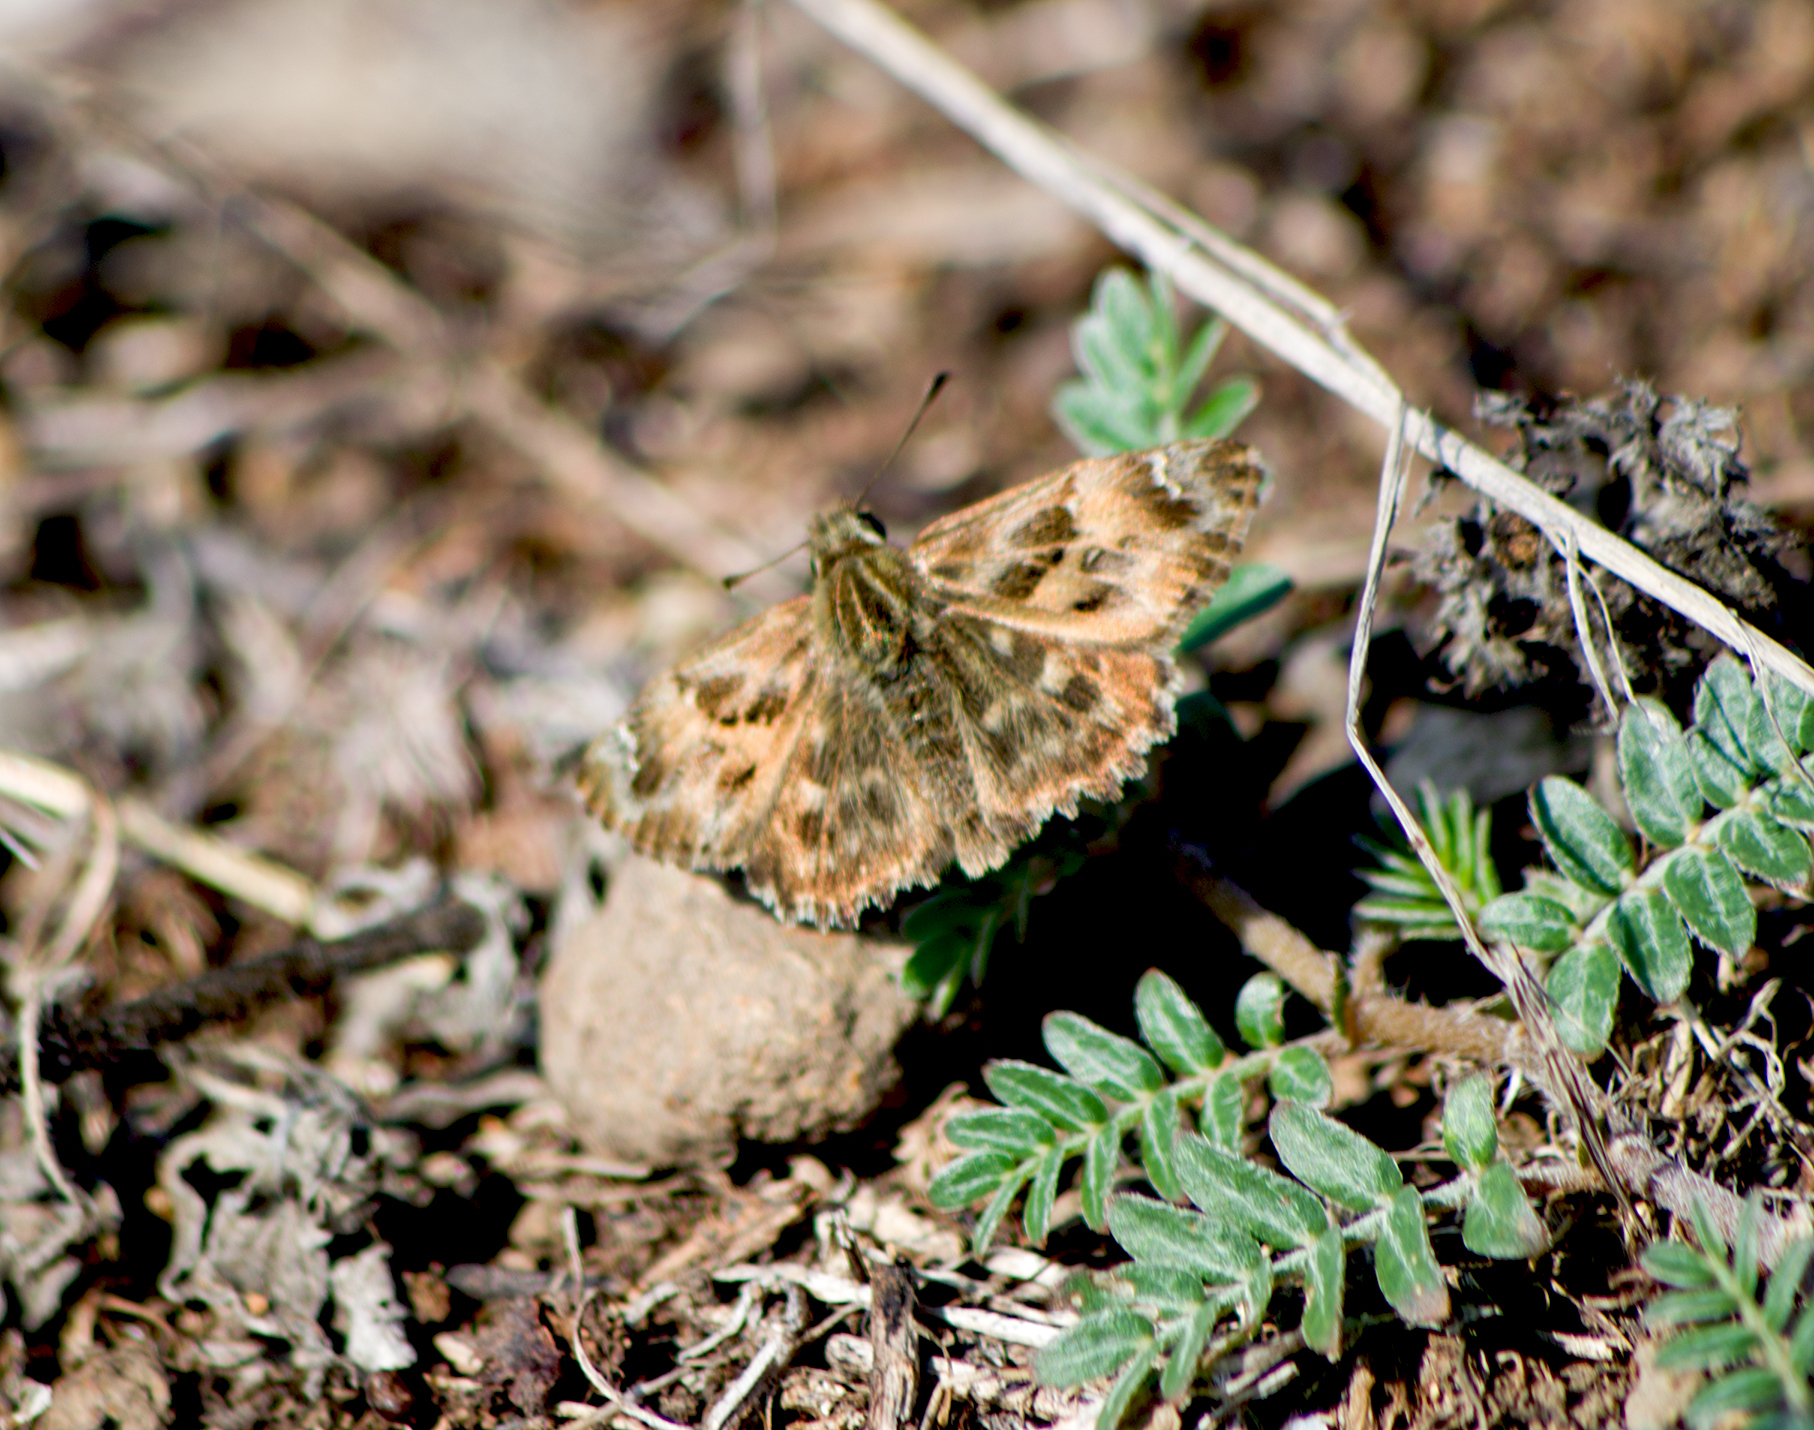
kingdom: Animalia
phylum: Arthropoda
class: Insecta
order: Lepidoptera
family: Hesperiidae
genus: Carcharodus
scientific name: Carcharodus alceae
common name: Mallow skipper
